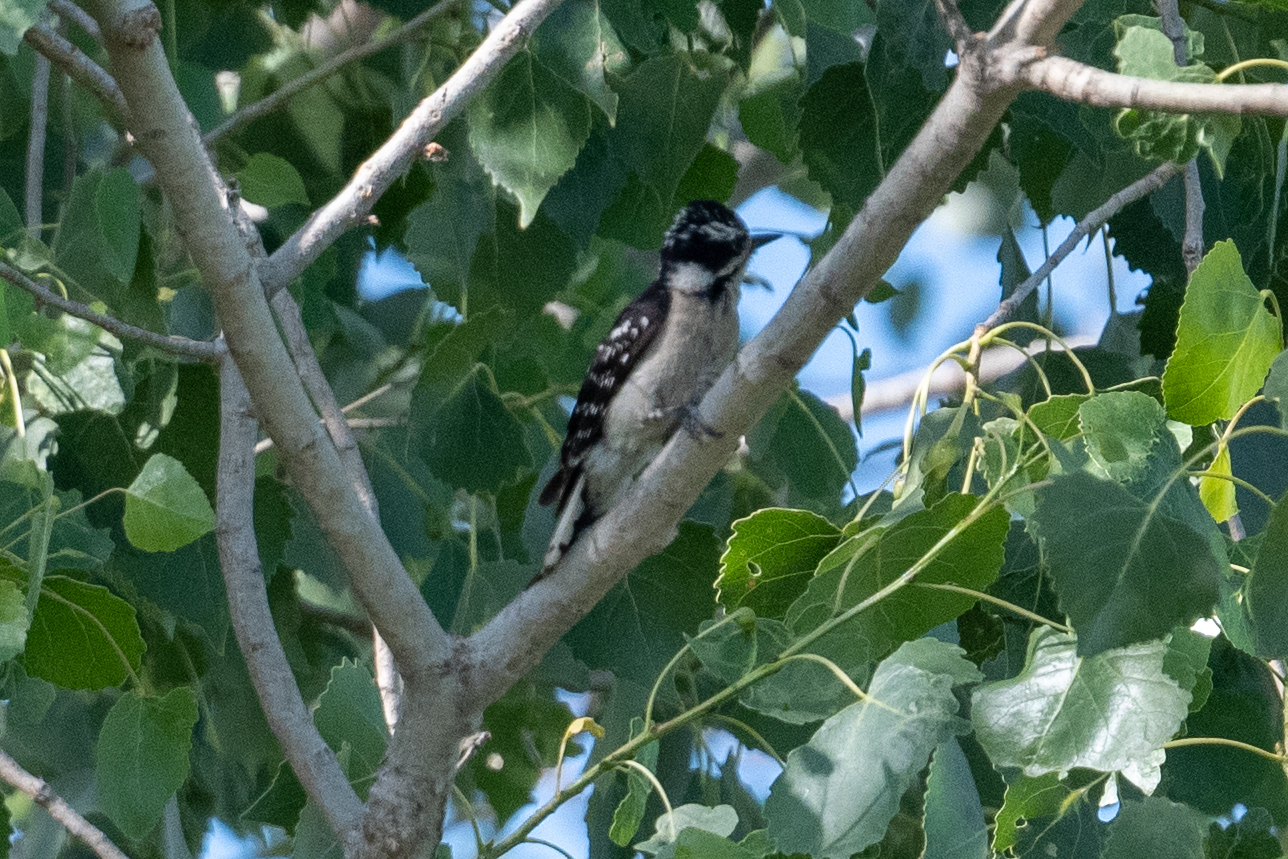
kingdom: Animalia
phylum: Chordata
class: Aves
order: Piciformes
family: Picidae
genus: Dryobates
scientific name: Dryobates pubescens
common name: Downy woodpecker
